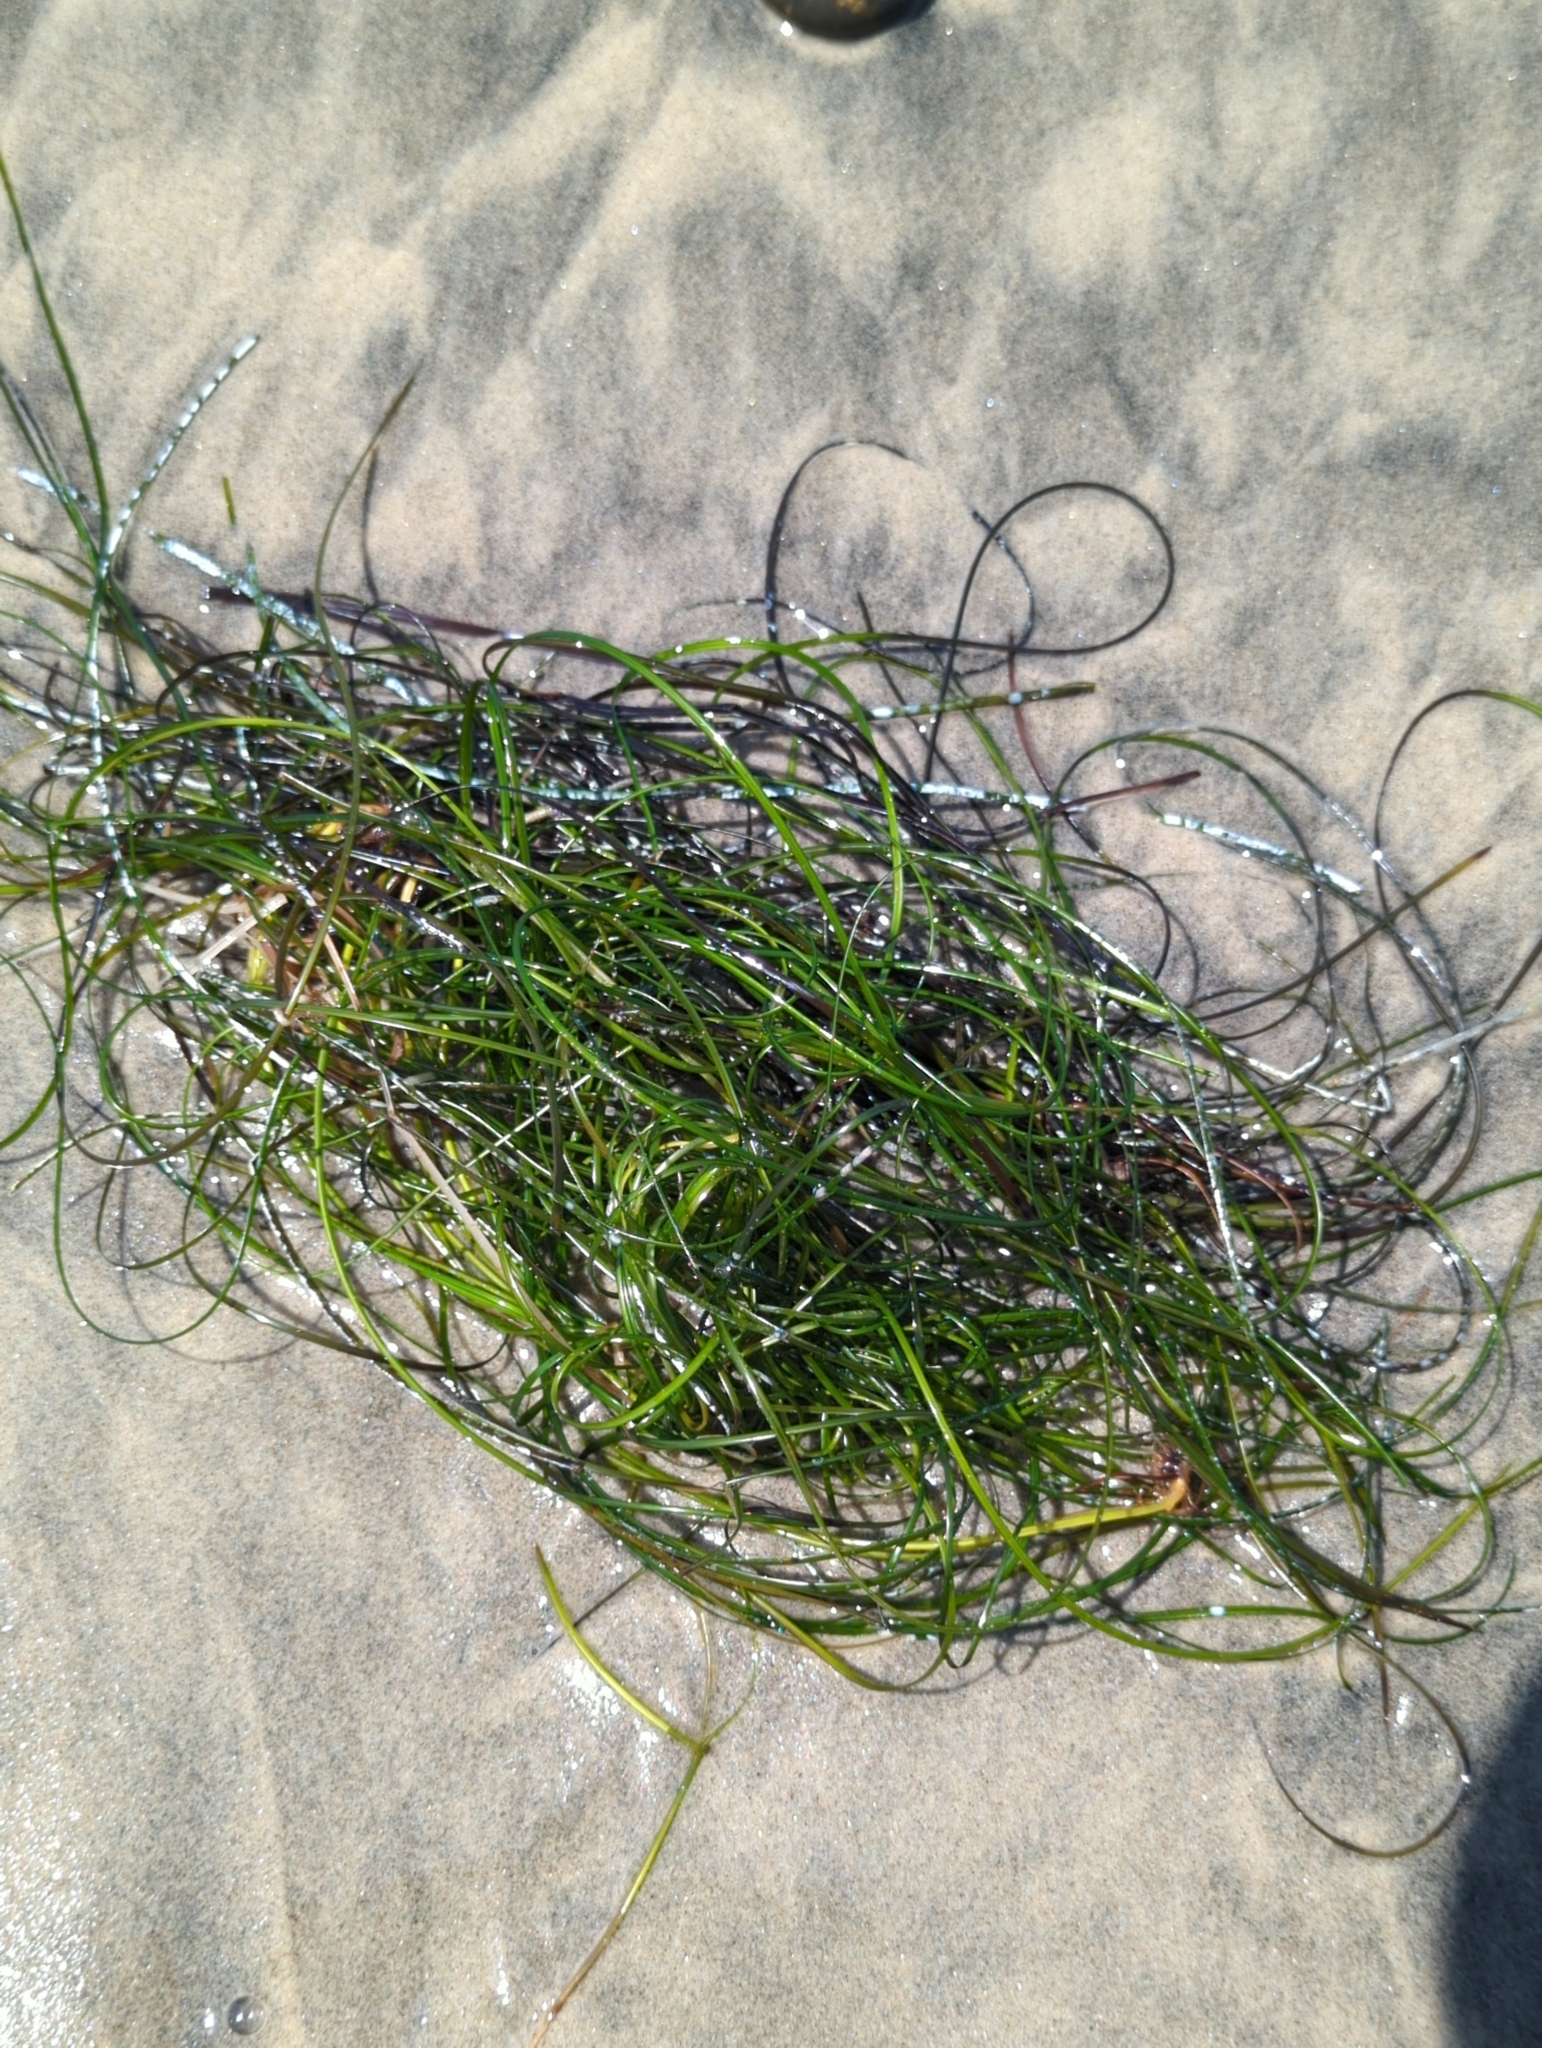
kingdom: Plantae
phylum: Tracheophyta
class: Liliopsida
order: Alismatales
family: Zosteraceae
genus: Phyllospadix
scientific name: Phyllospadix torreyi
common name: Surfgrass
